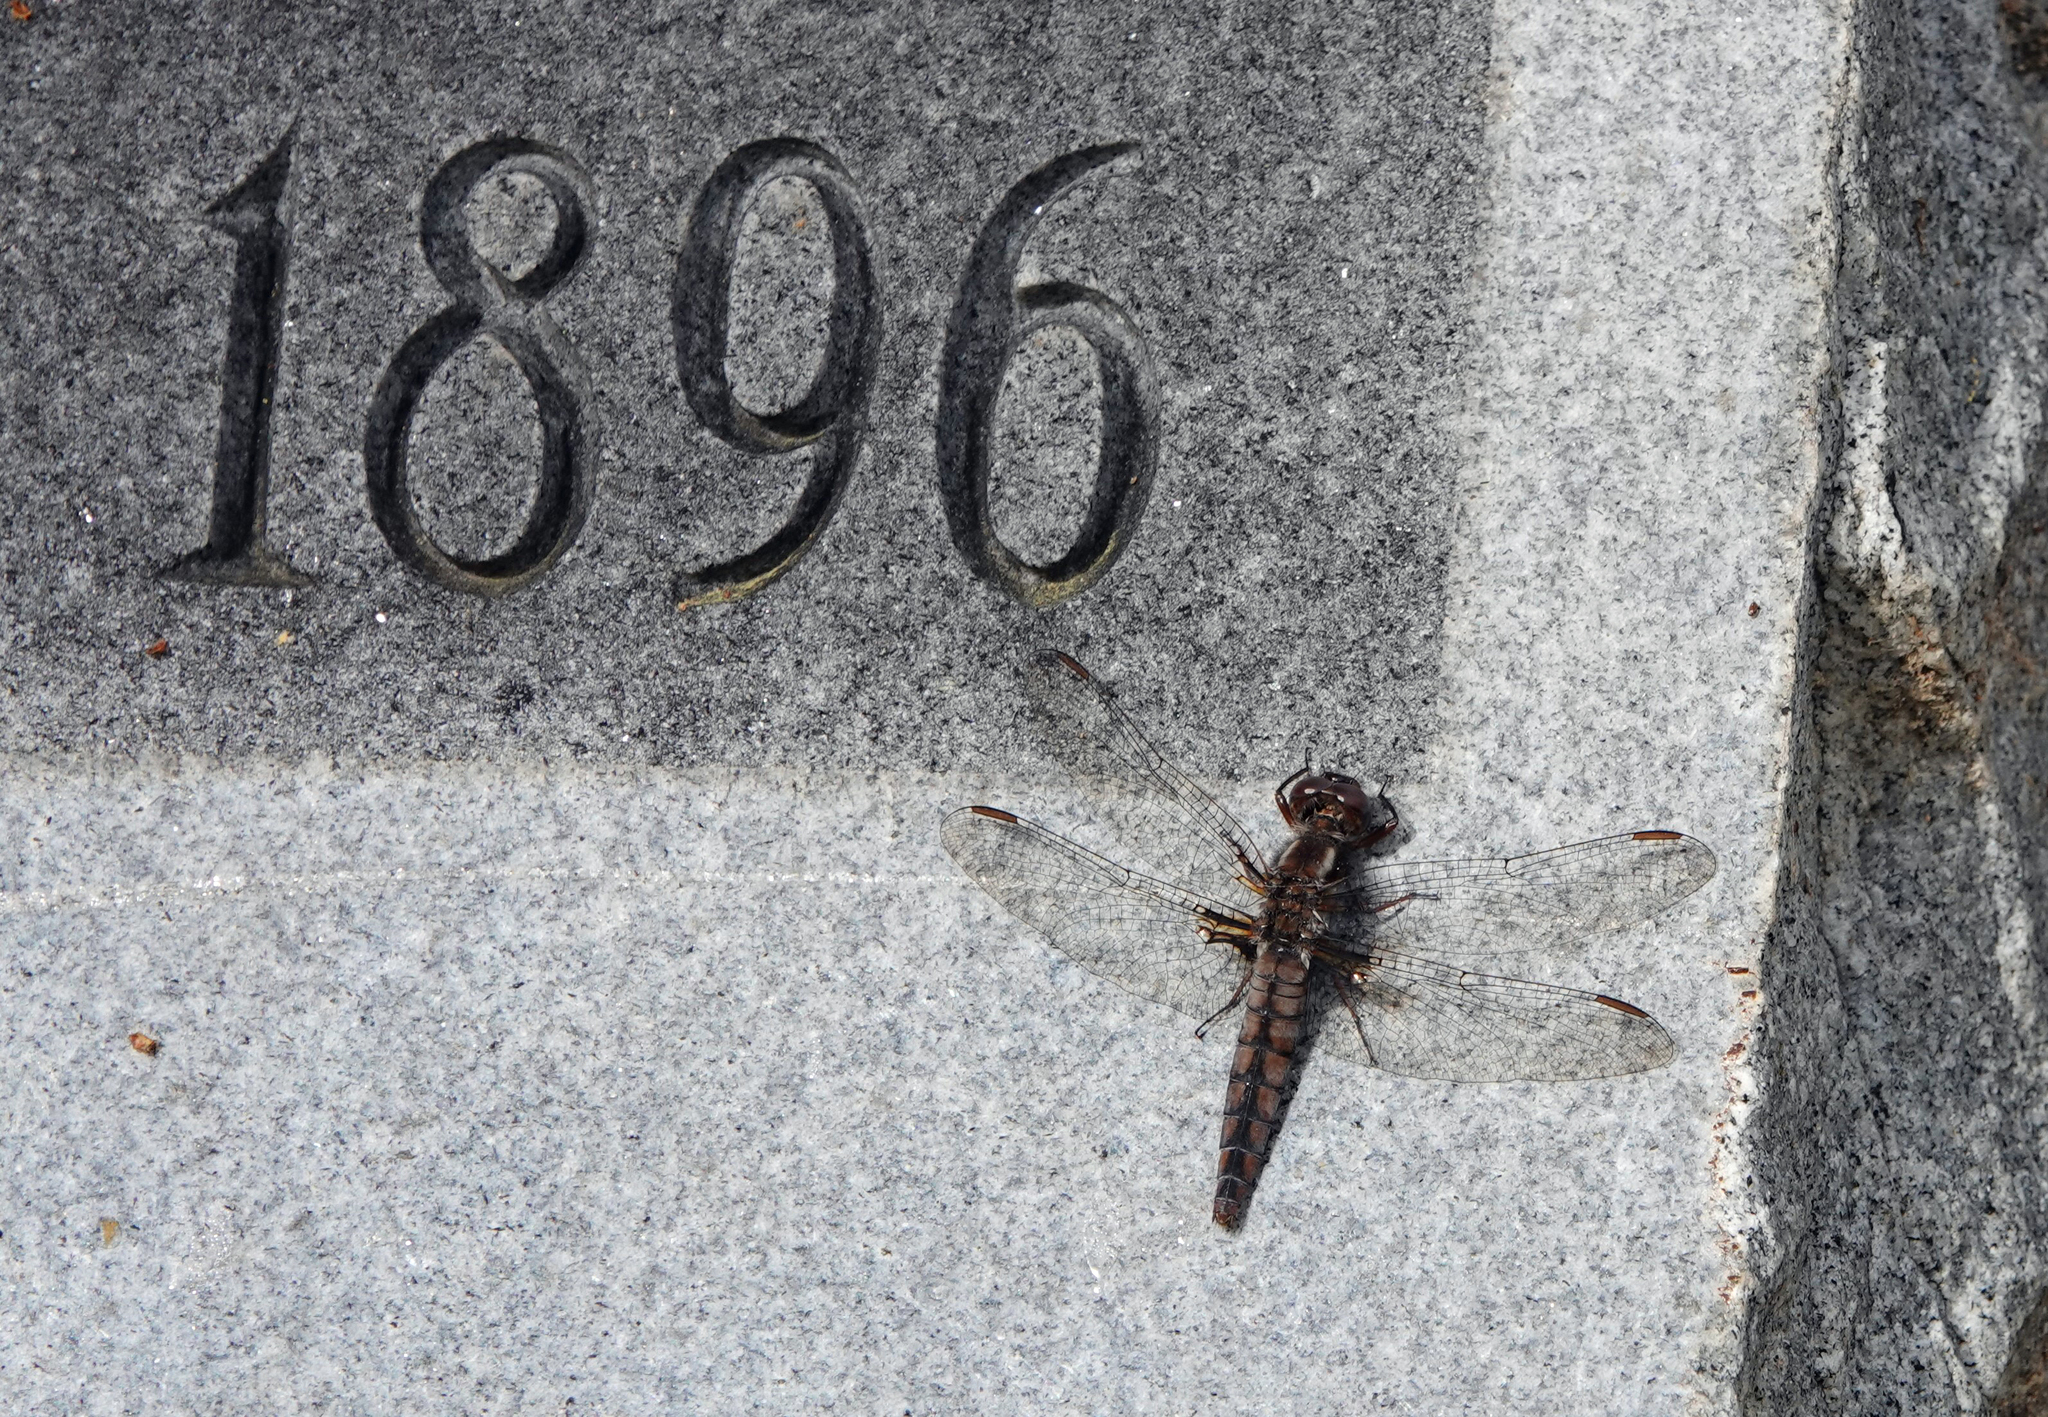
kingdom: Animalia
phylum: Arthropoda
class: Insecta
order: Odonata
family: Libellulidae
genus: Ladona
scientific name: Ladona deplanata
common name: Blue corporal
